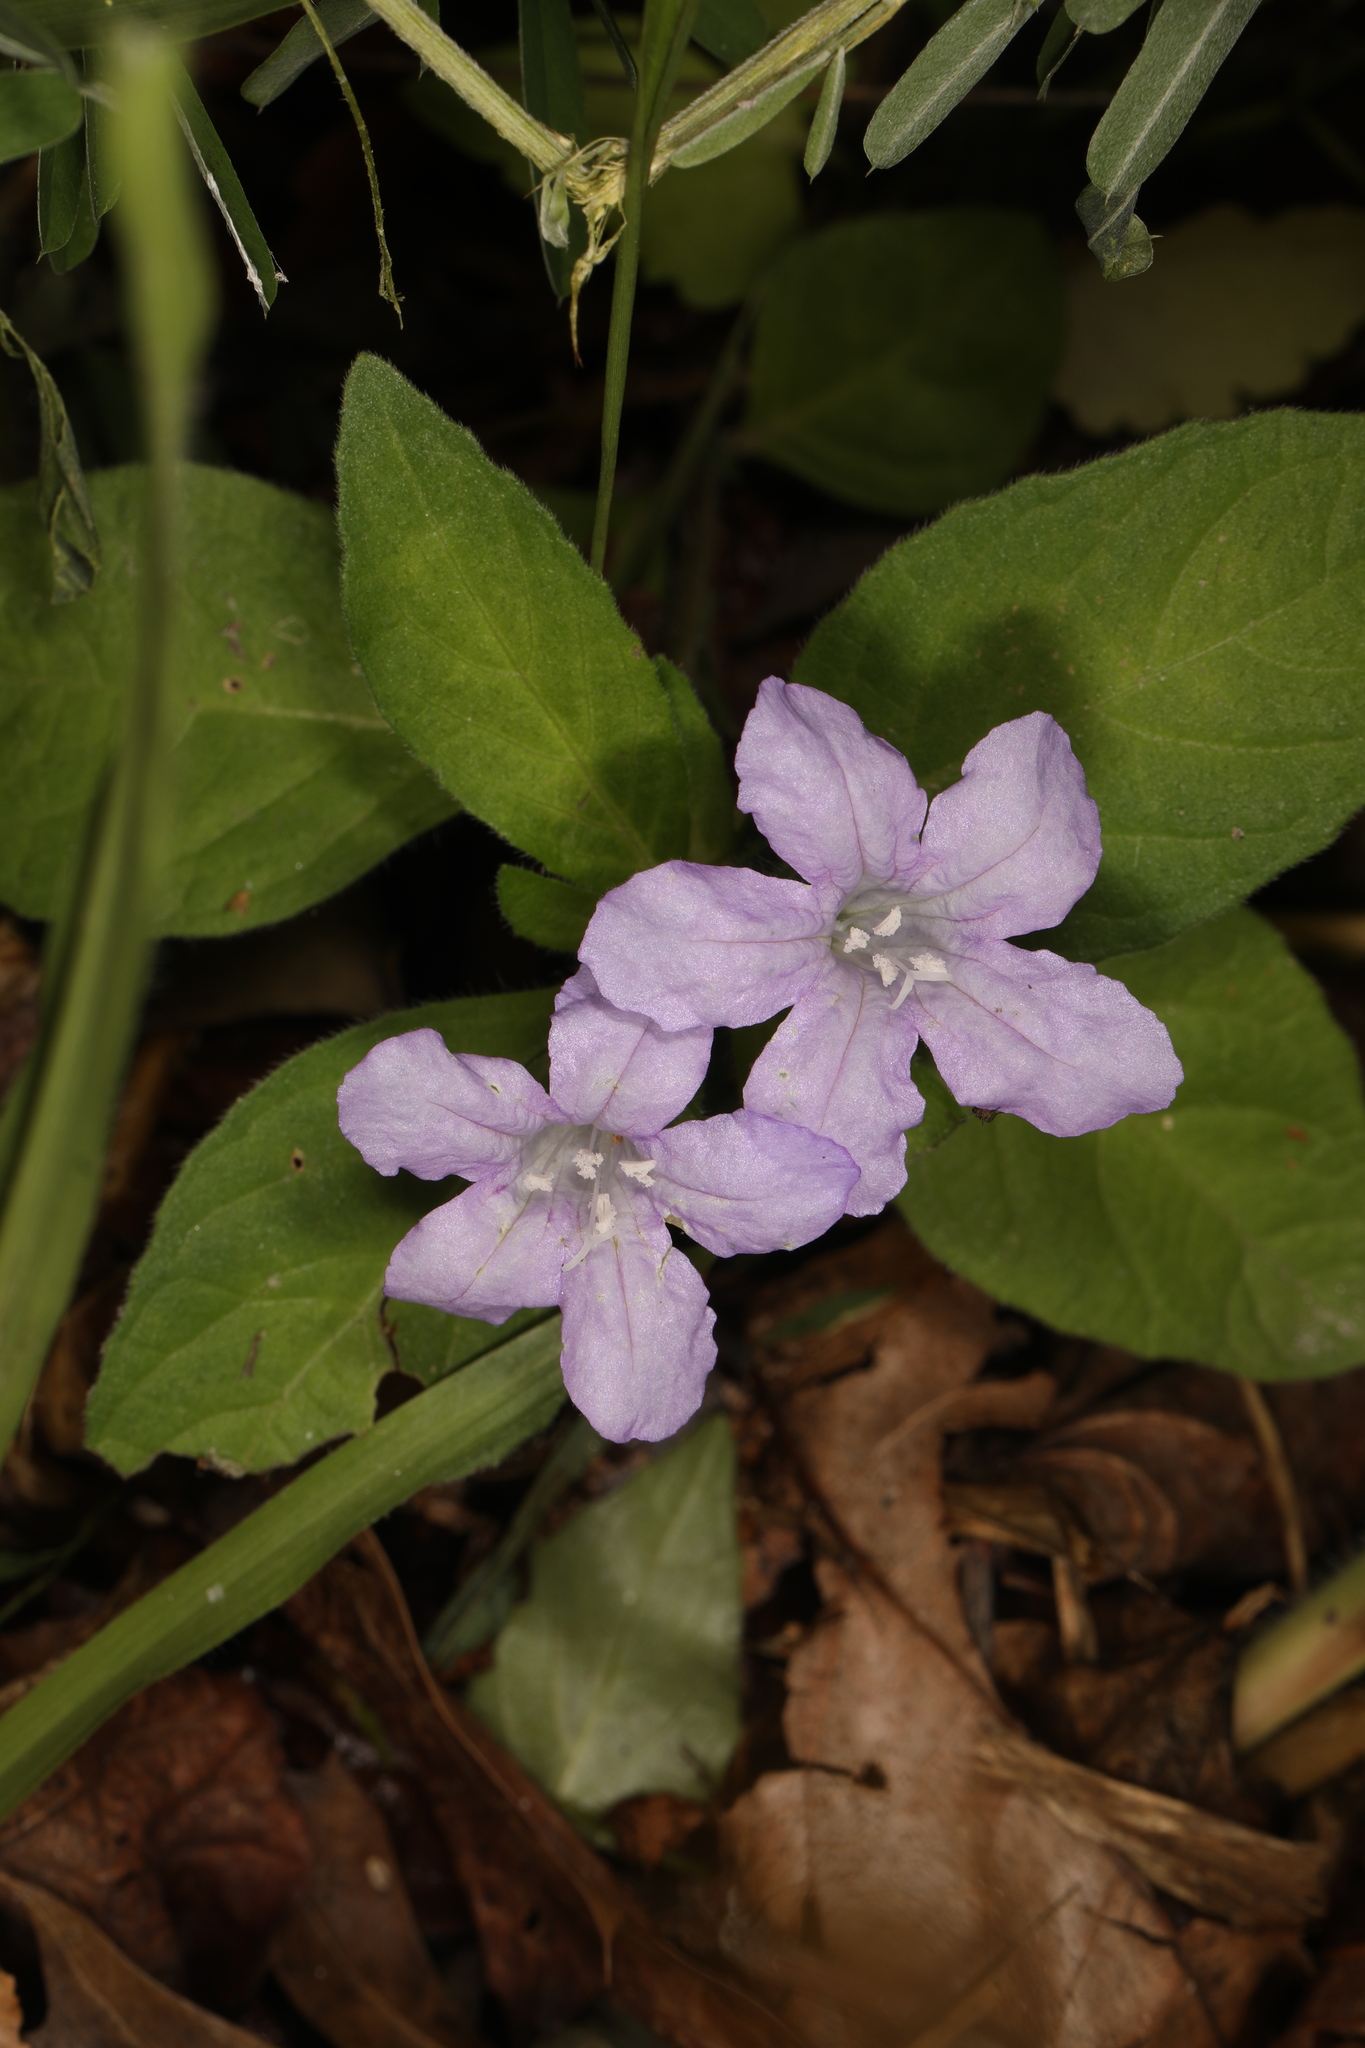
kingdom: Plantae
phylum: Tracheophyta
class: Magnoliopsida
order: Lamiales
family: Acanthaceae
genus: Ruellia
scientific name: Ruellia caroliniensis
